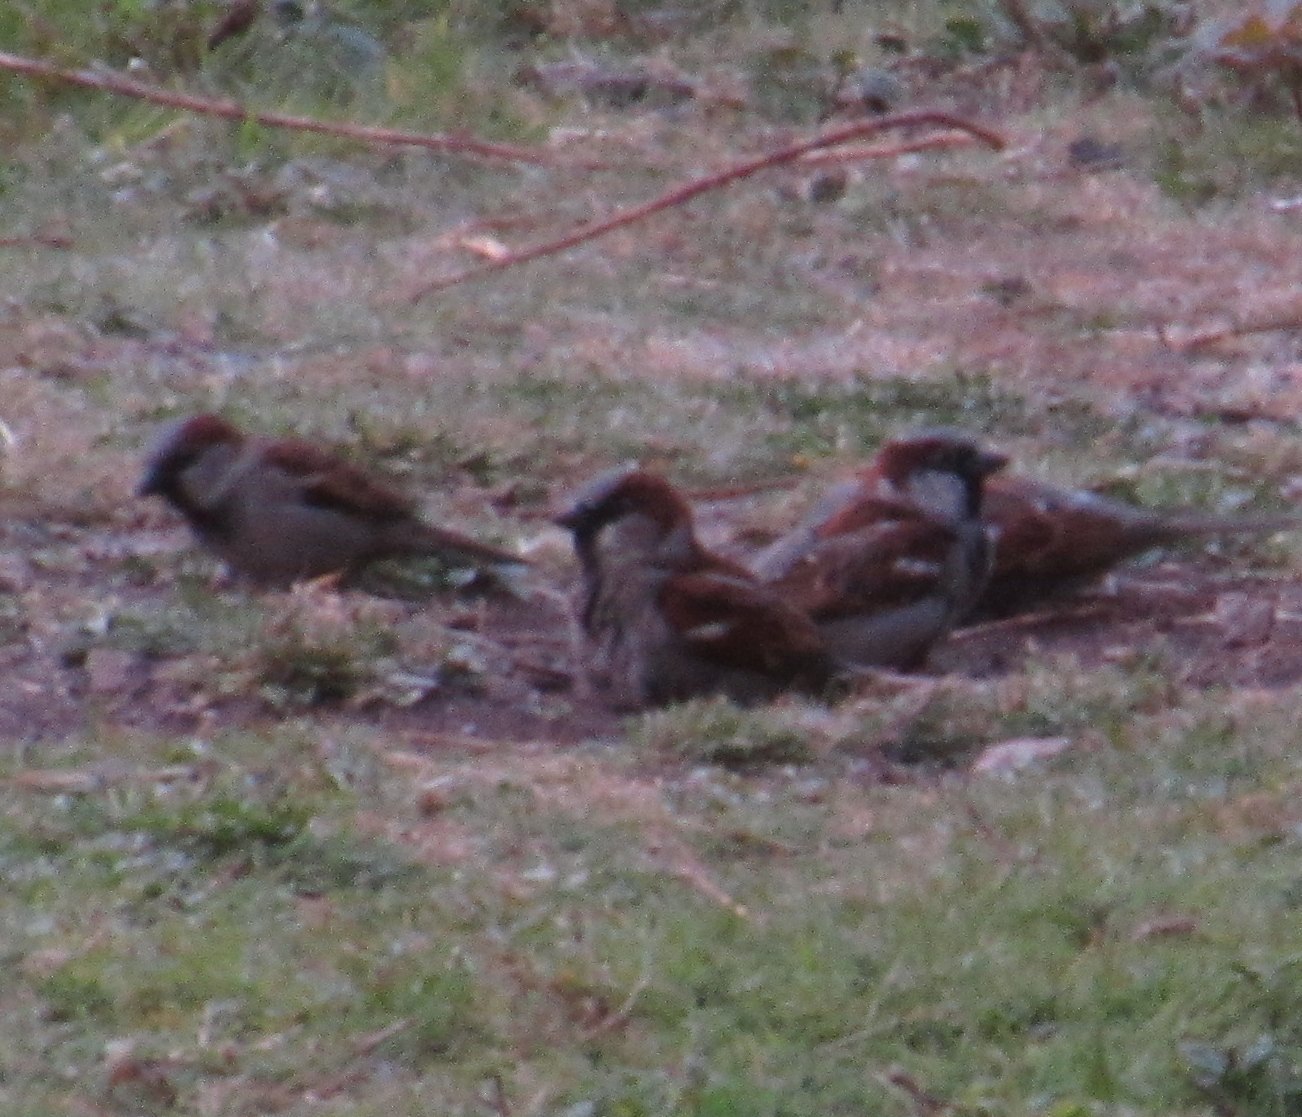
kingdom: Animalia
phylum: Chordata
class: Aves
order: Passeriformes
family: Passeridae
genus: Passer
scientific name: Passer domesticus
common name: House sparrow
